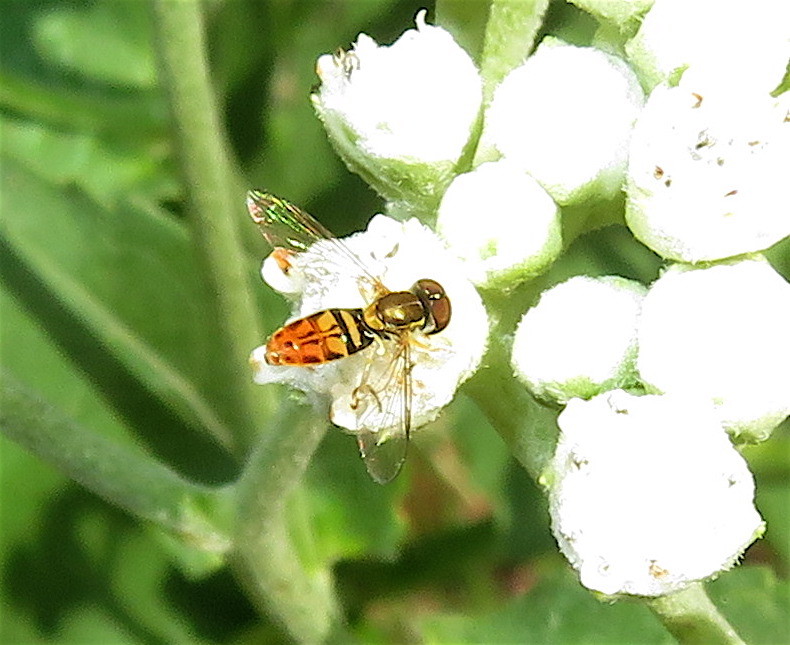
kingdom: Animalia
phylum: Arthropoda
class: Insecta
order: Diptera
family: Syrphidae
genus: Toxomerus
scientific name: Toxomerus marginatus
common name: Syrphid fly
